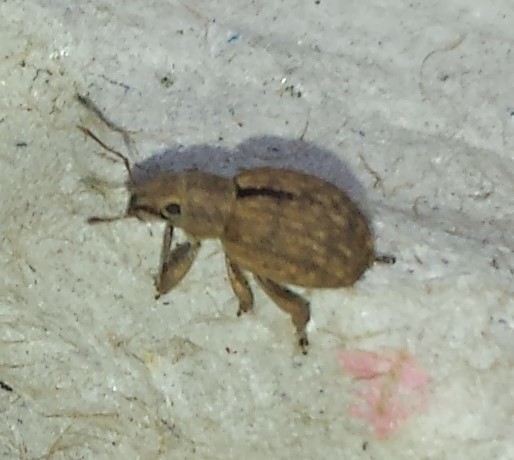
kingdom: Animalia
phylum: Arthropoda
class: Insecta
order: Coleoptera
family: Curculionidae
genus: Strophosoma
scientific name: Strophosoma melanogrammum
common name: Weevil
